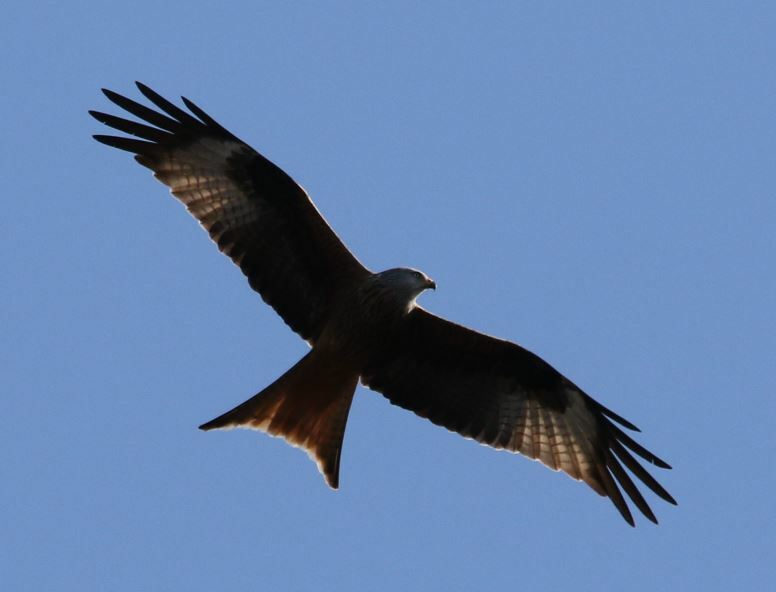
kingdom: Animalia
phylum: Chordata
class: Aves
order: Accipitriformes
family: Accipitridae
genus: Milvus
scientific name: Milvus milvus
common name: Red kite
